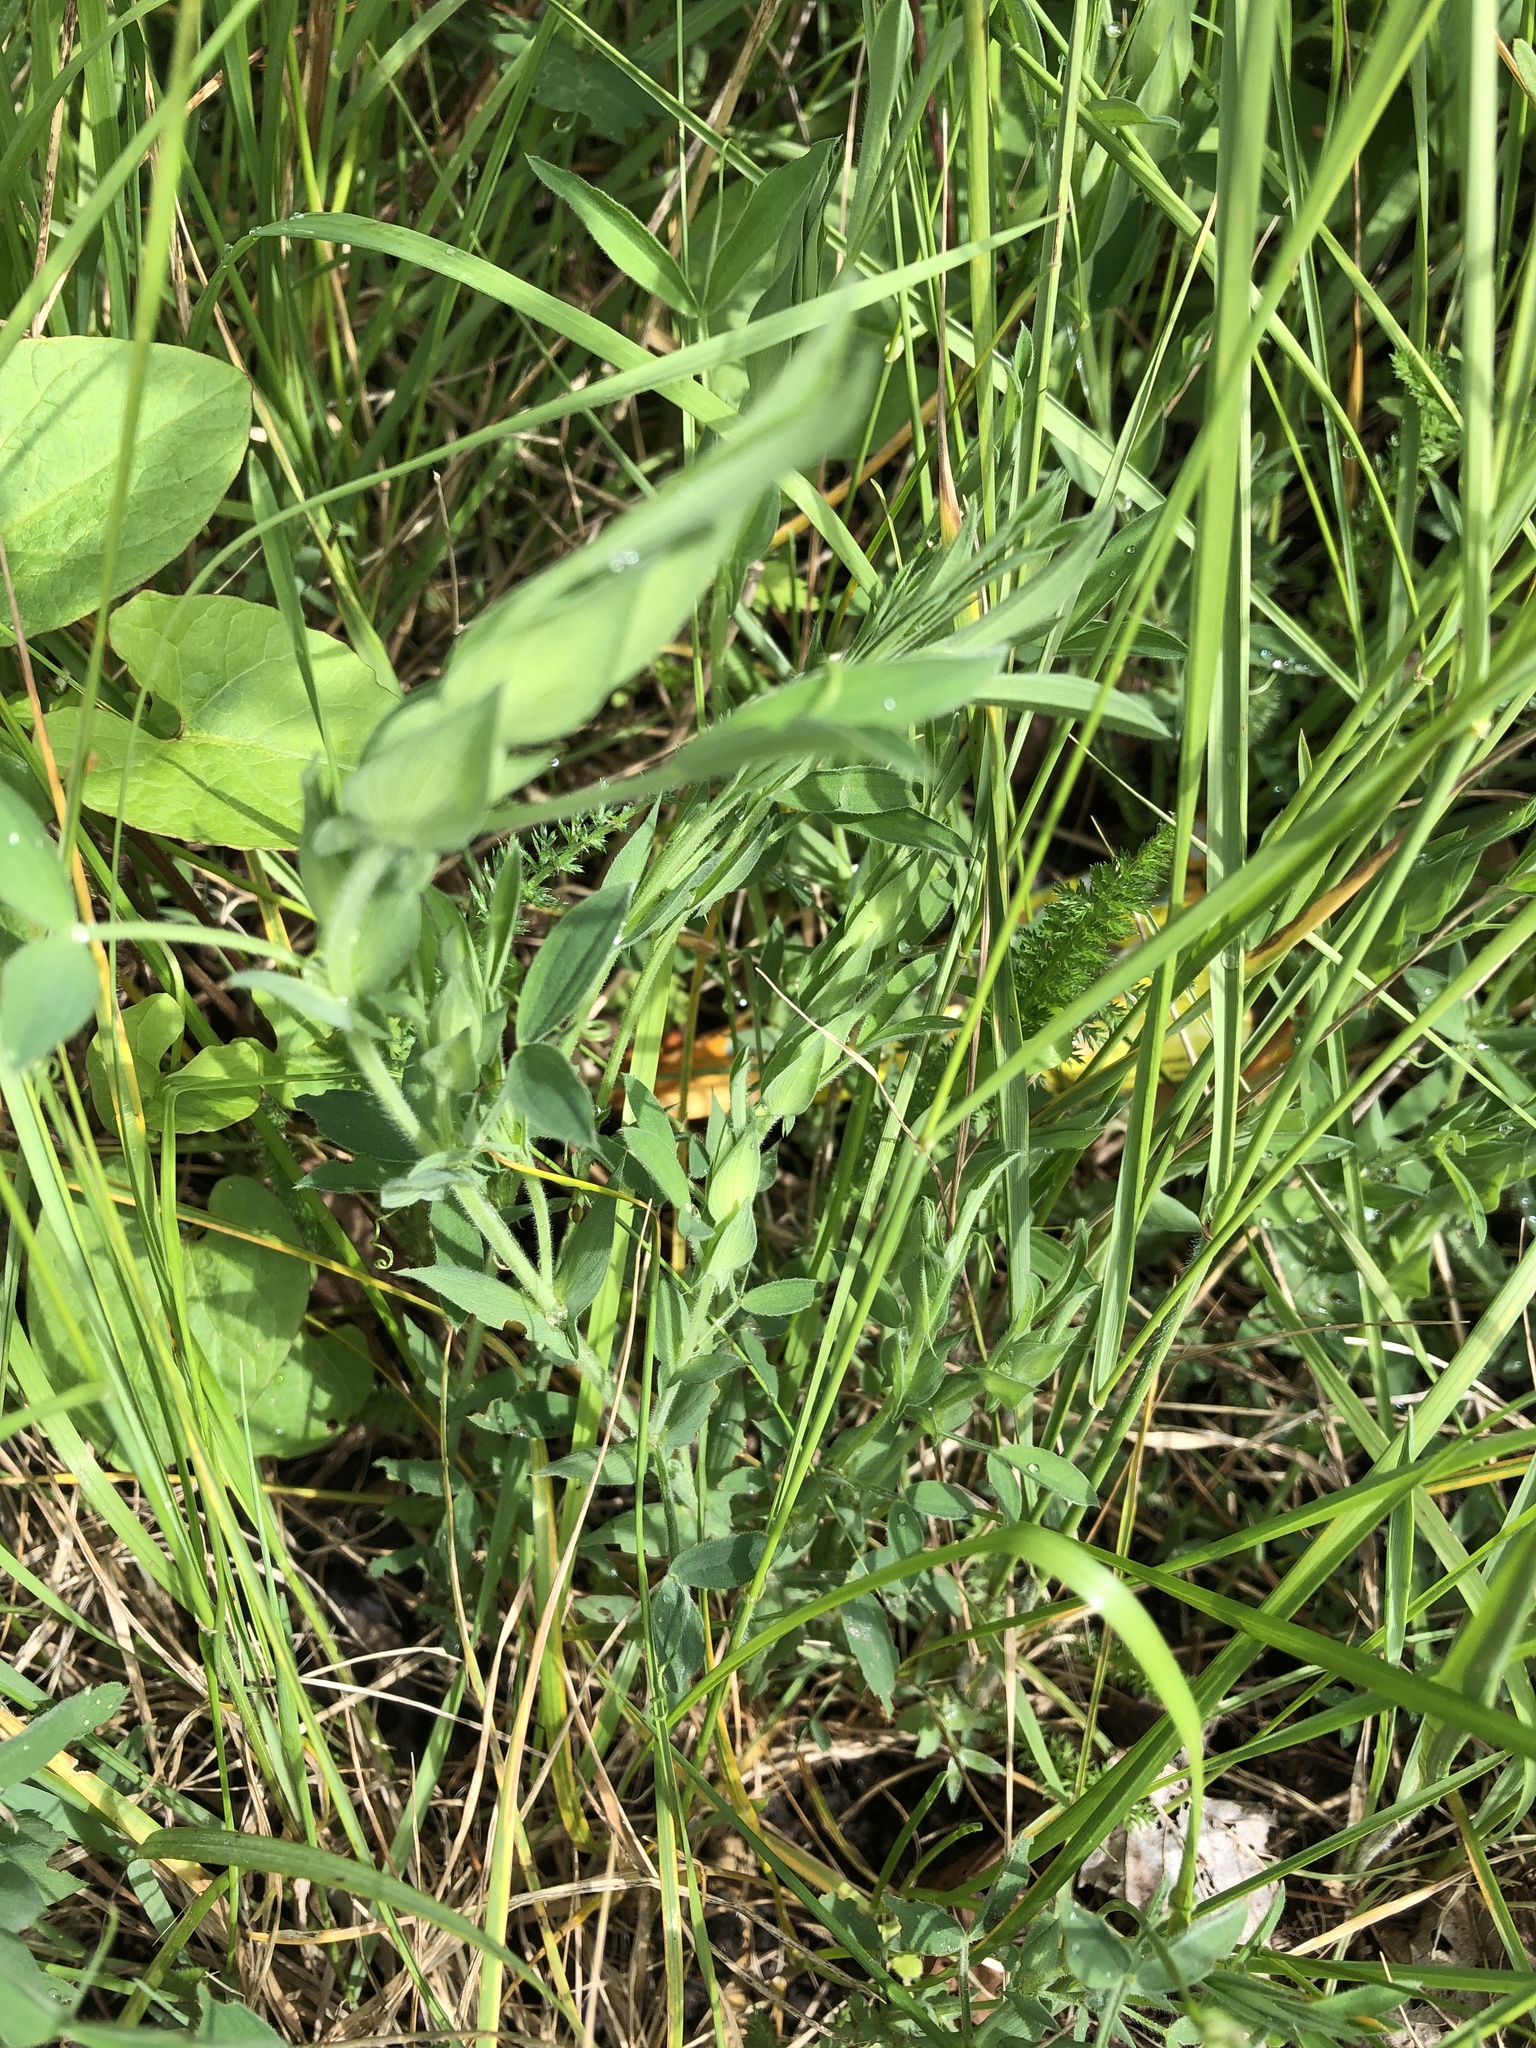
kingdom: Plantae
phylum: Tracheophyta
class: Magnoliopsida
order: Fabales
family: Fabaceae
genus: Lathyrus
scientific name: Lathyrus pratensis
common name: Meadow vetchling
